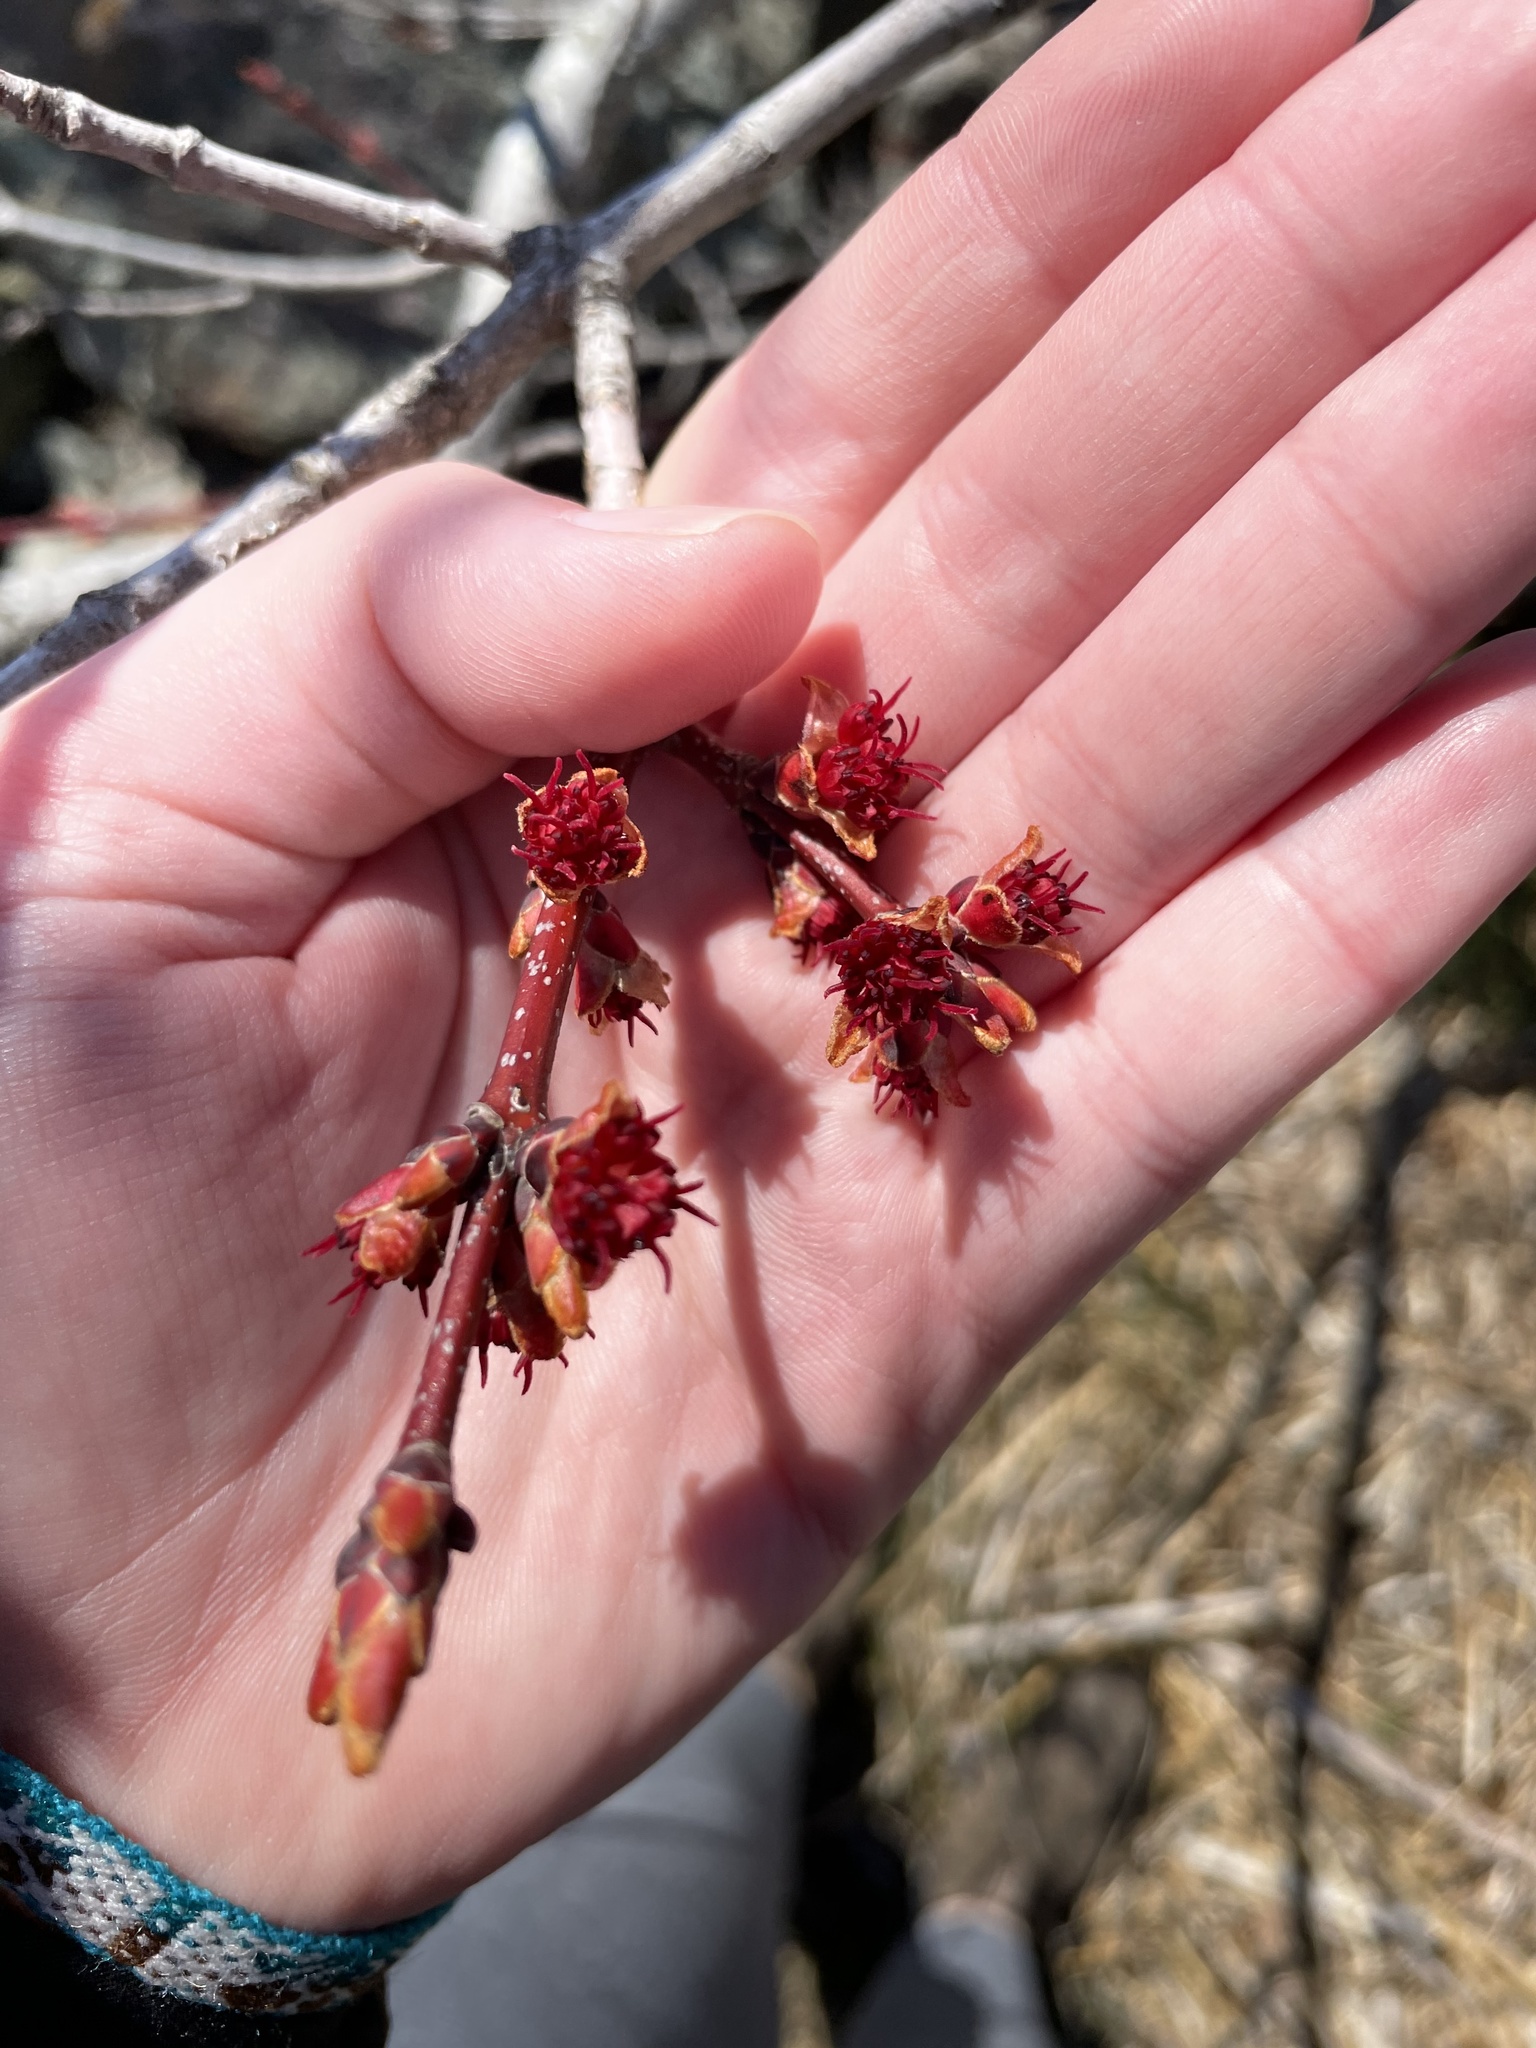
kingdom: Plantae
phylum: Tracheophyta
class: Magnoliopsida
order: Sapindales
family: Sapindaceae
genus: Acer
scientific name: Acer rubrum
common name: Red maple
